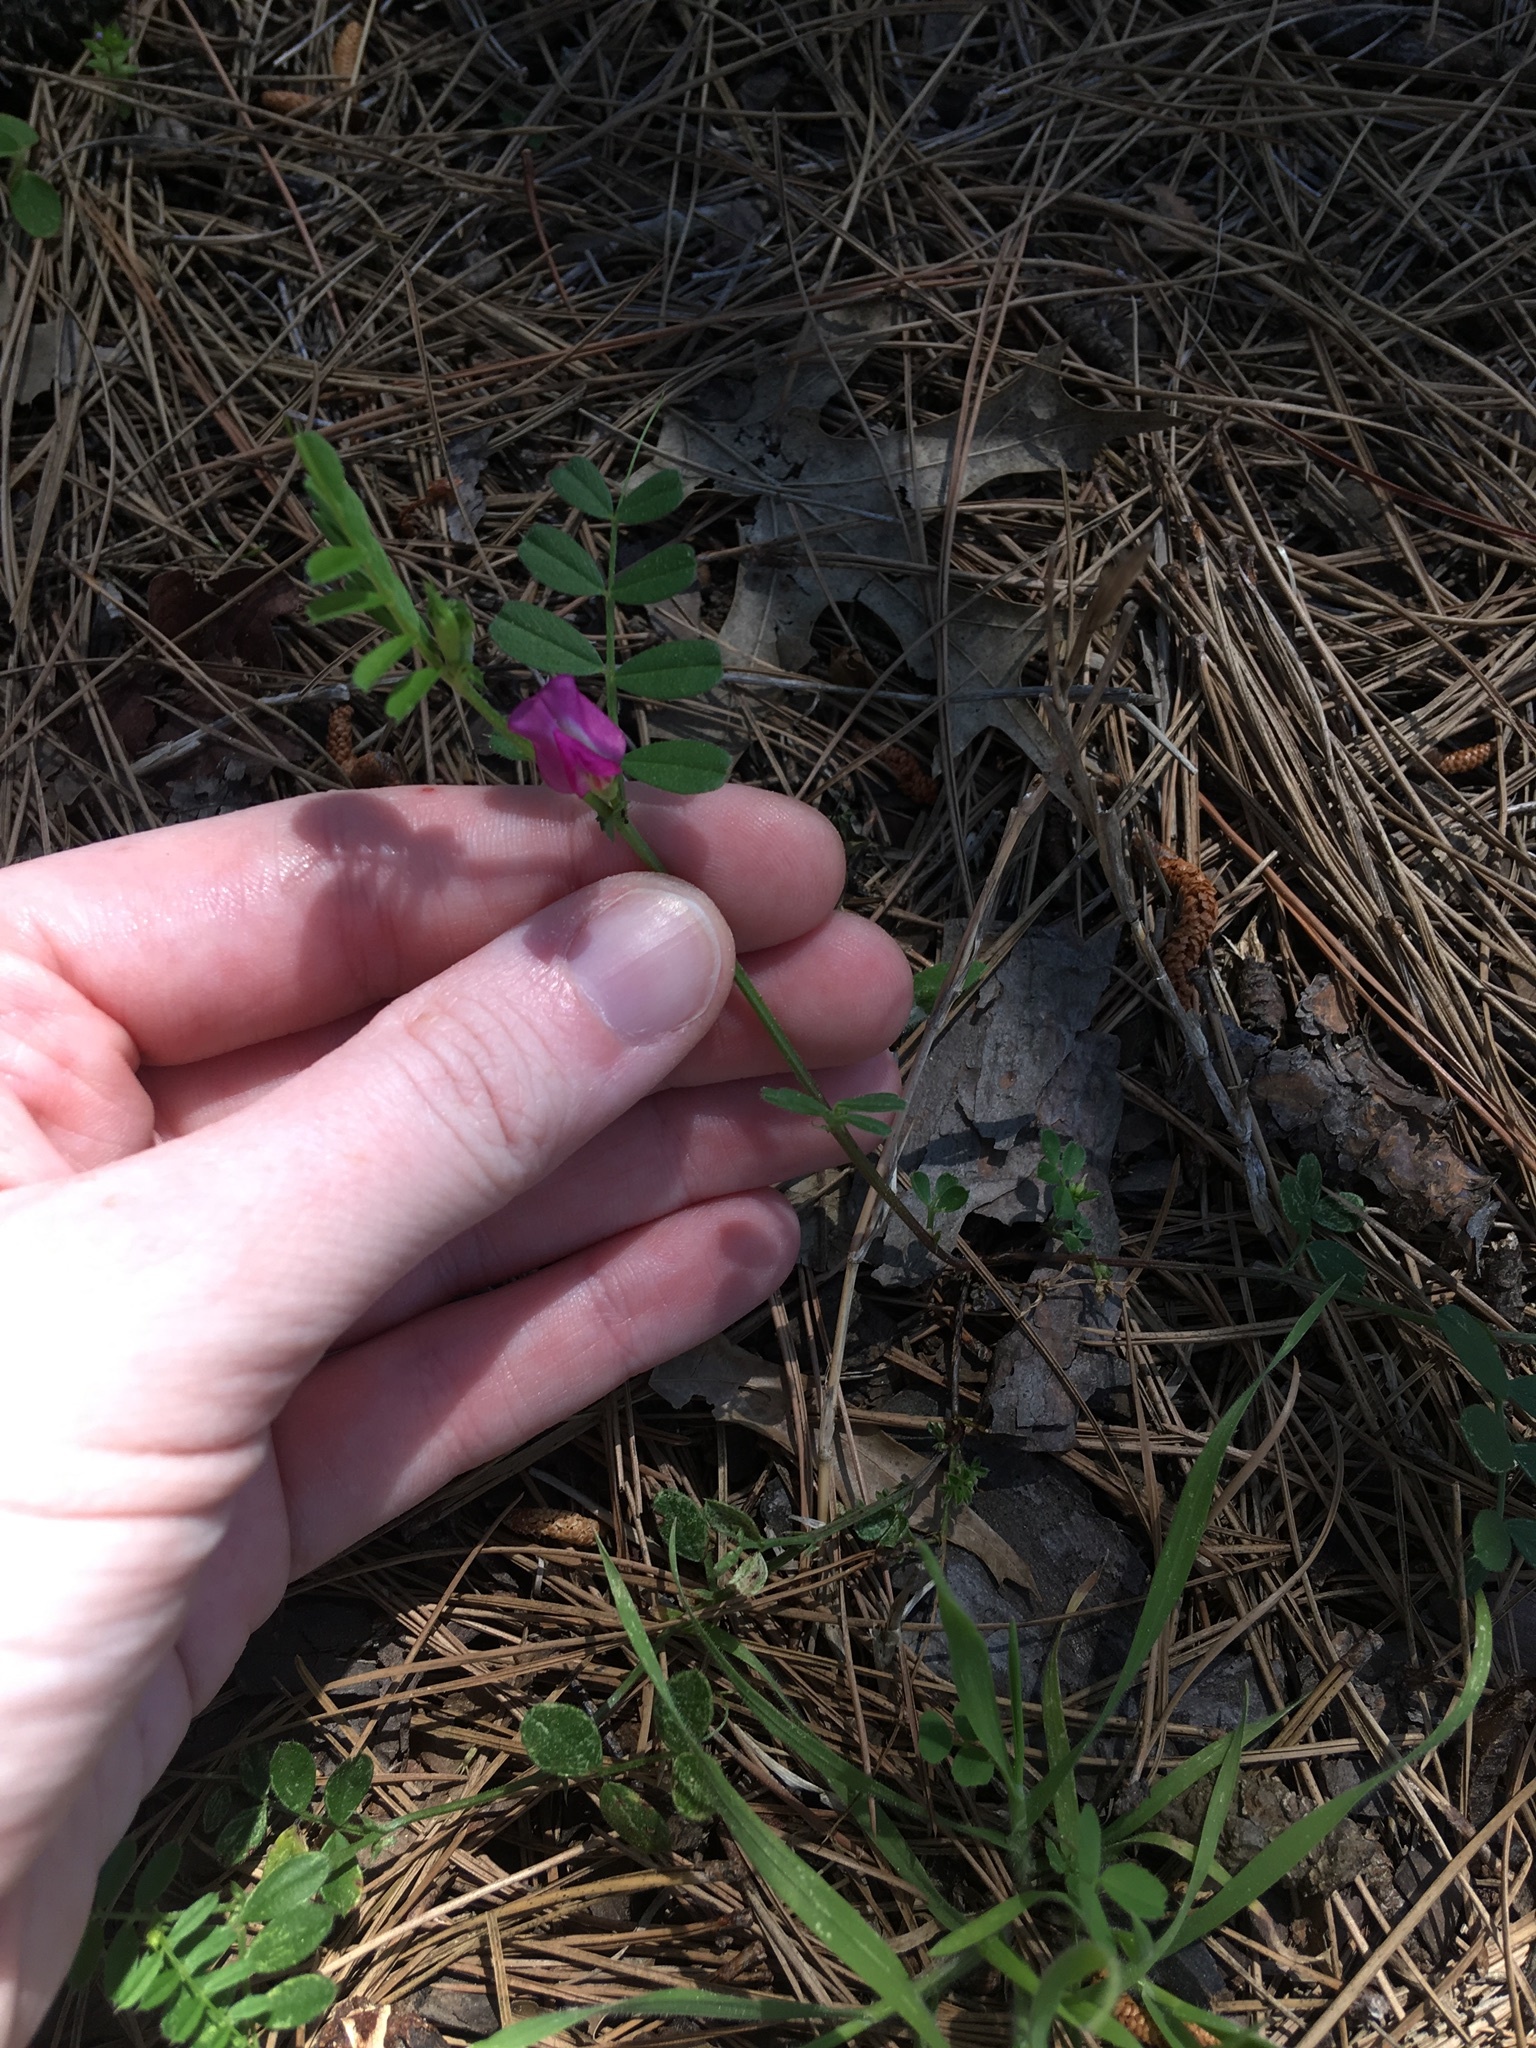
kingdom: Plantae
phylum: Tracheophyta
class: Magnoliopsida
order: Fabales
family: Fabaceae
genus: Vicia
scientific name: Vicia sativa
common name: Garden vetch
